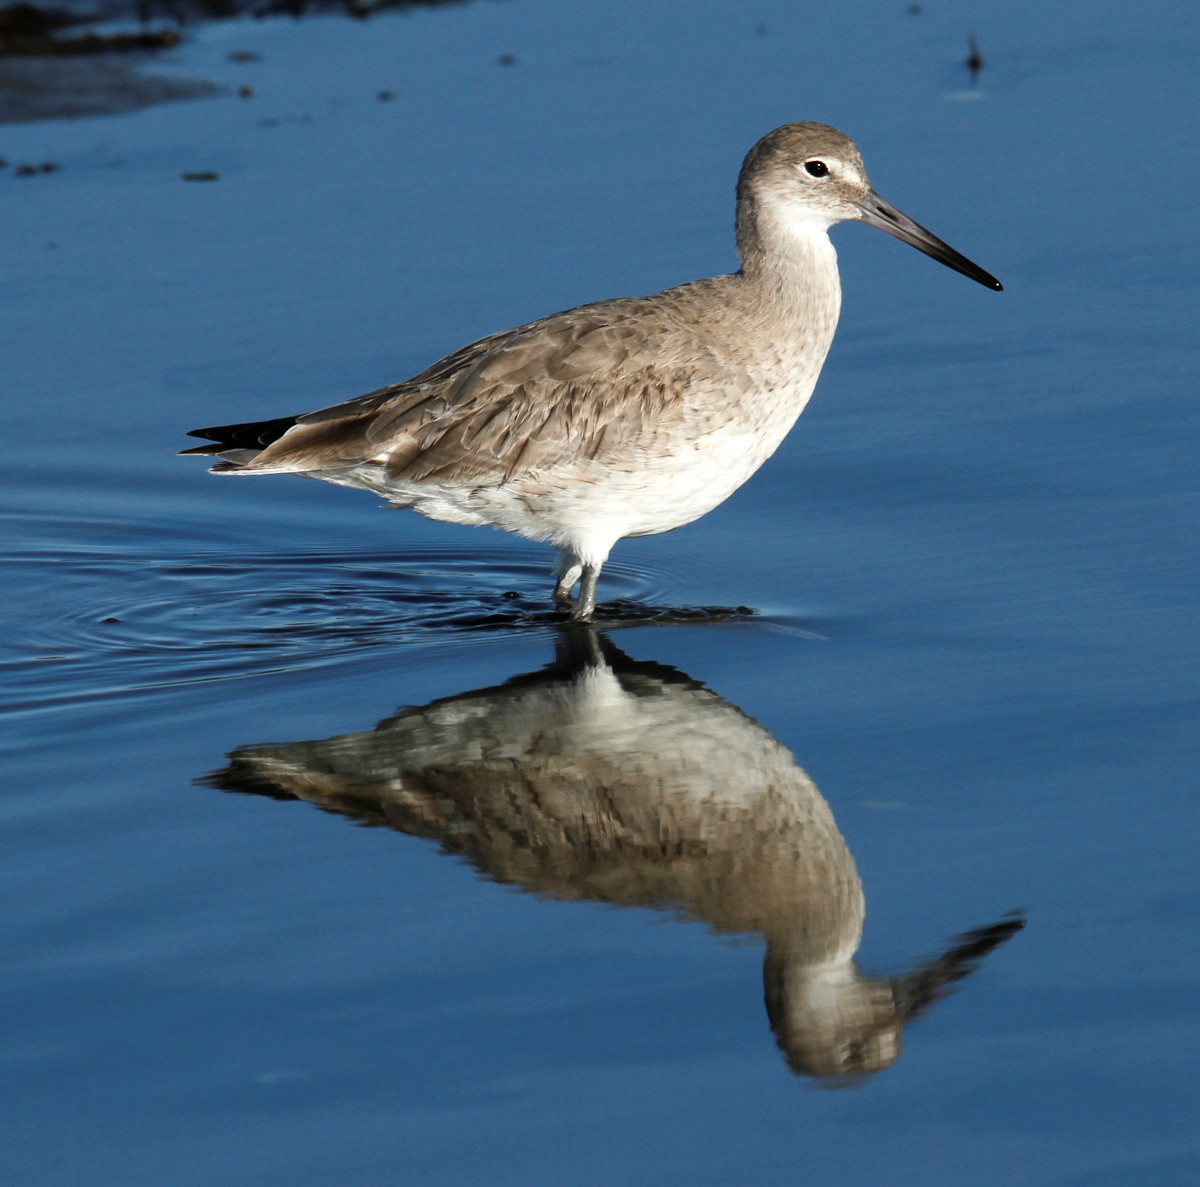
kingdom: Animalia
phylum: Chordata
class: Aves
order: Charadriiformes
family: Scolopacidae
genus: Tringa
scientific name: Tringa semipalmata
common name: Willet
